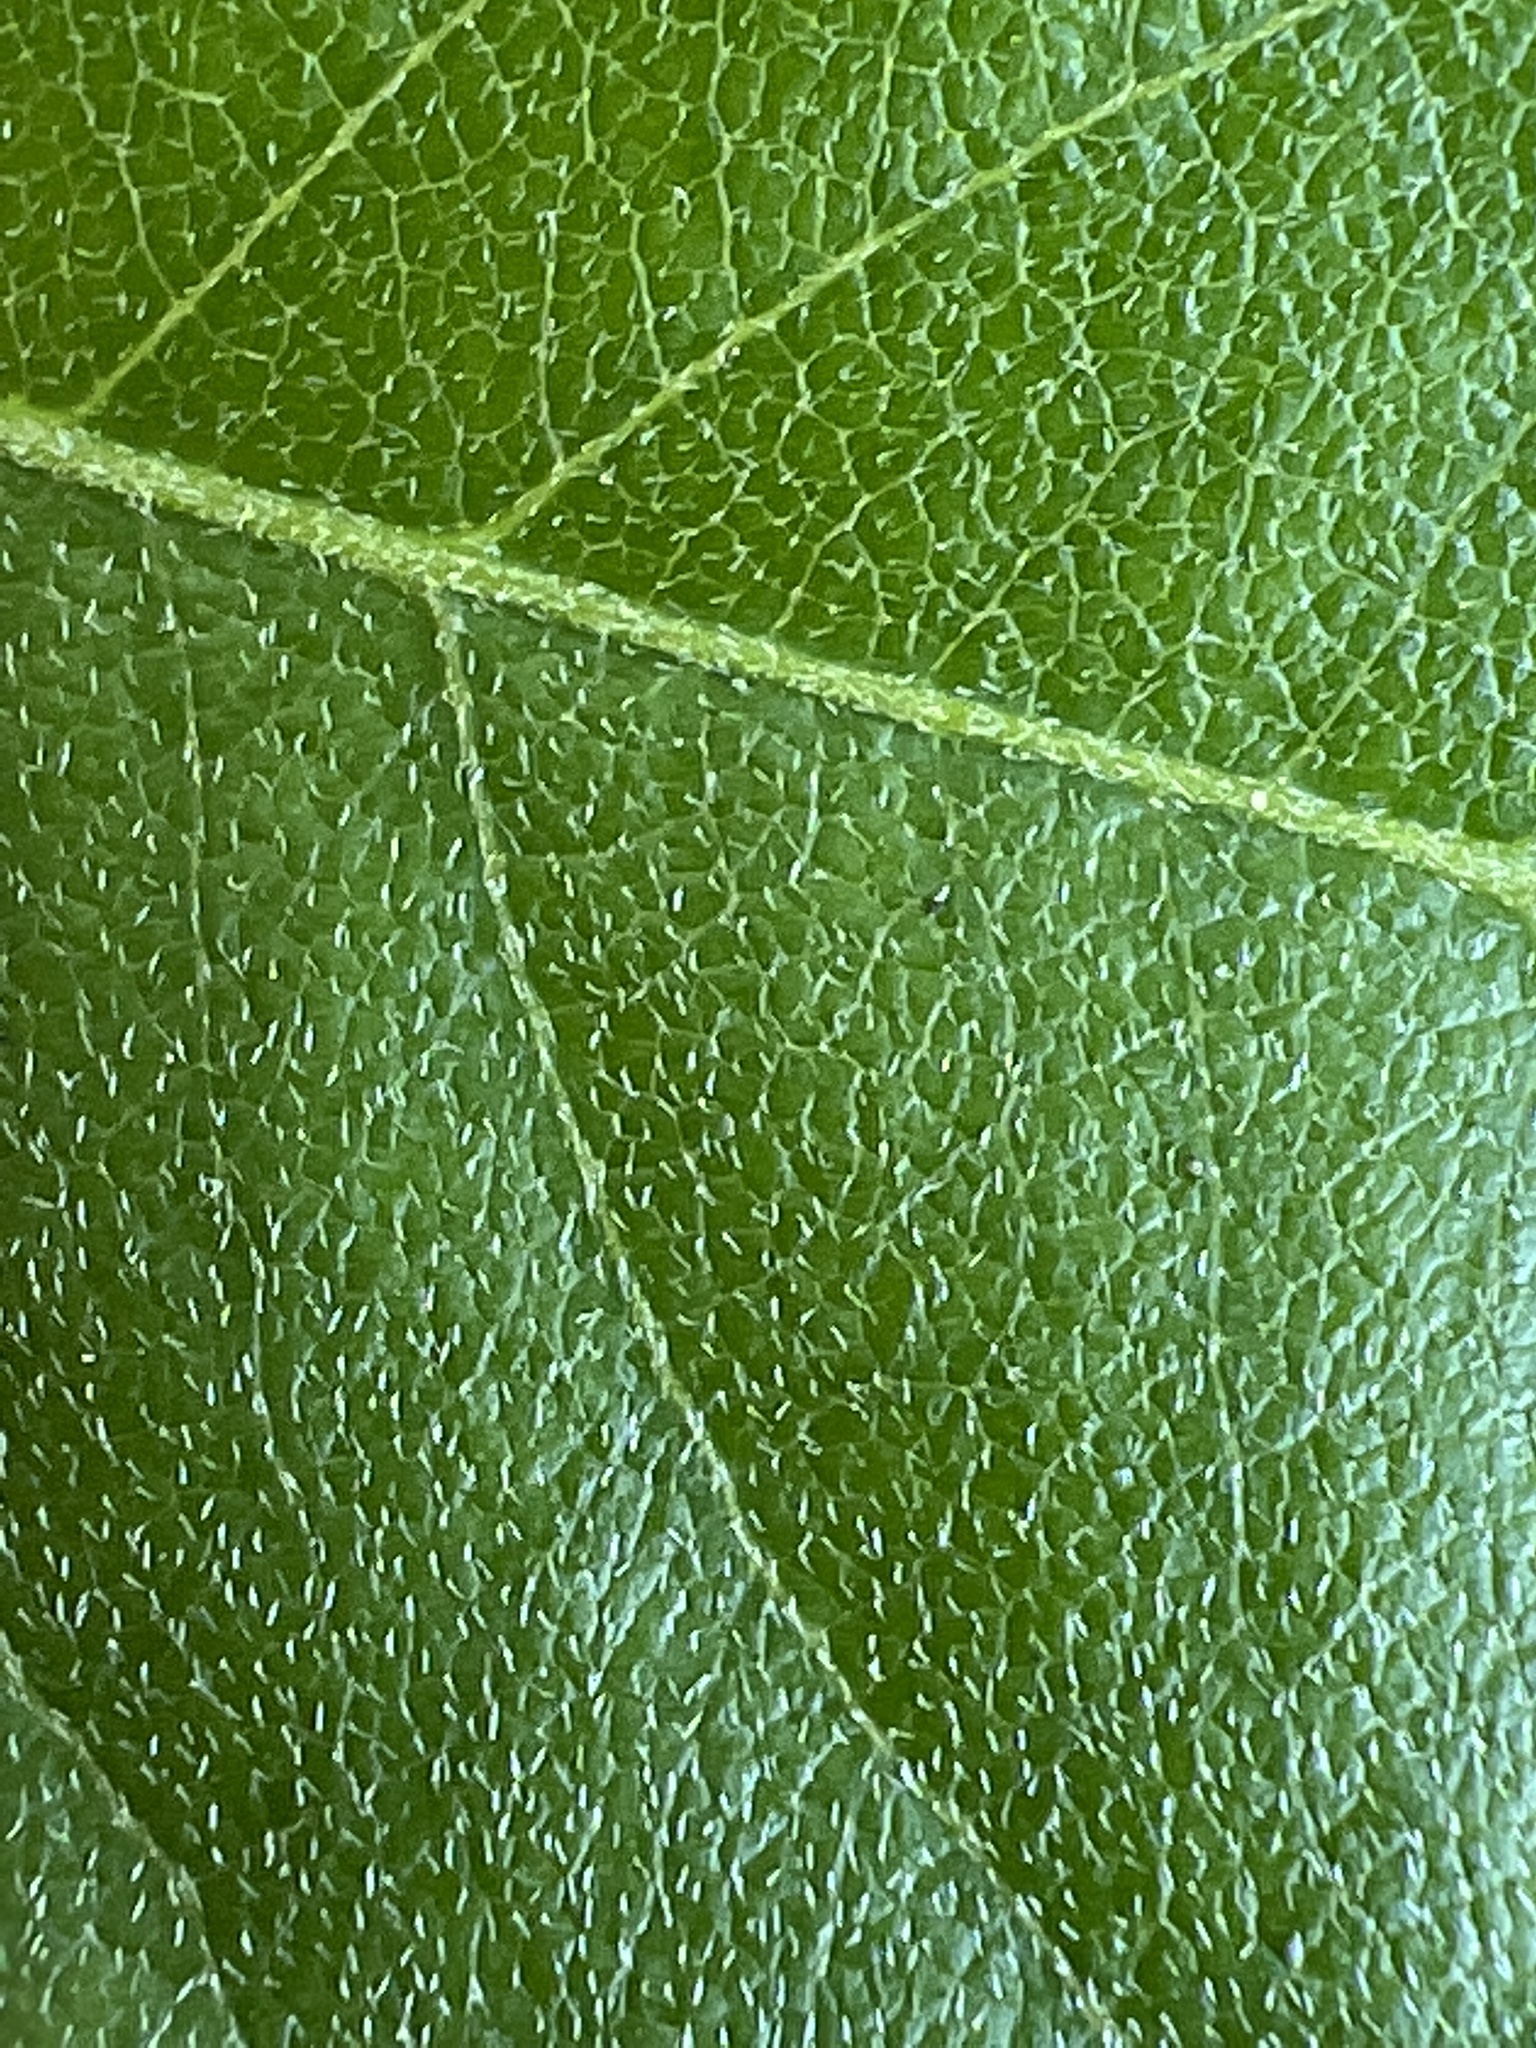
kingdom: Plantae
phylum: Tracheophyta
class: Magnoliopsida
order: Ericales
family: Ericaceae
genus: Lyonia
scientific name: Lyonia ligustrina
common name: Maleberry
